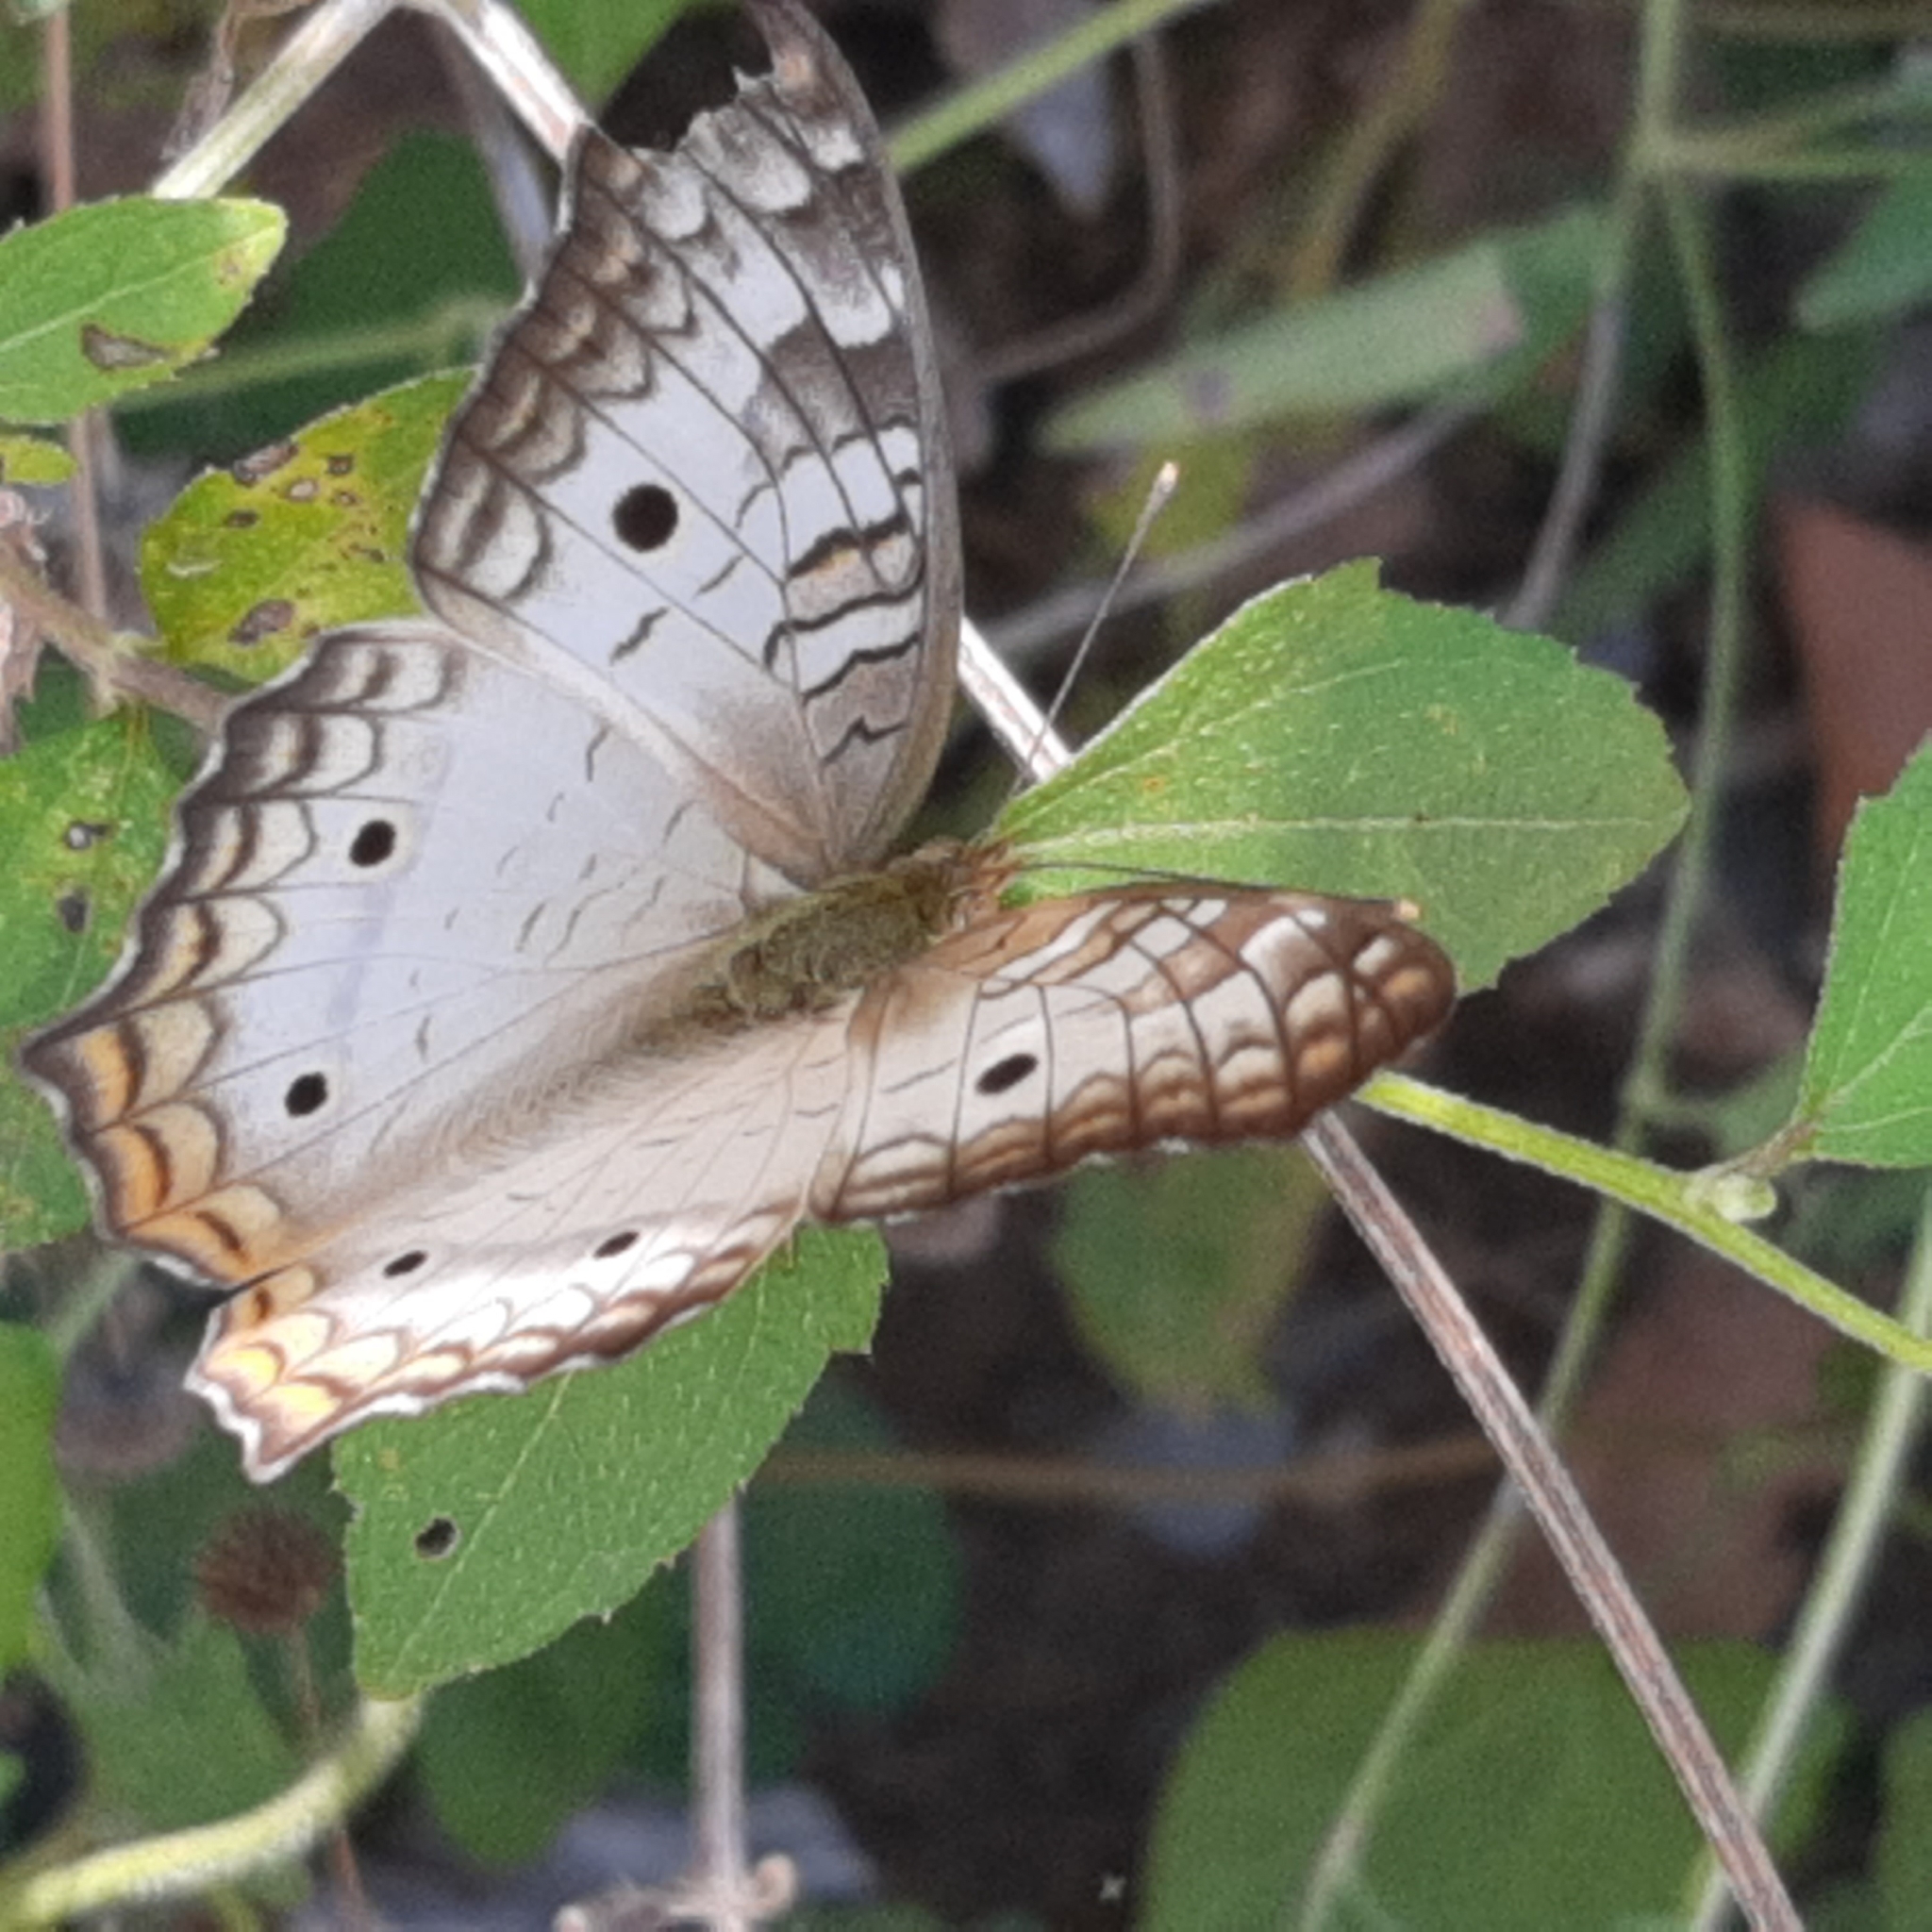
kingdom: Animalia
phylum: Arthropoda
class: Insecta
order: Lepidoptera
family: Nymphalidae
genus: Anartia
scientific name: Anartia jatrophae
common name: White peacock
